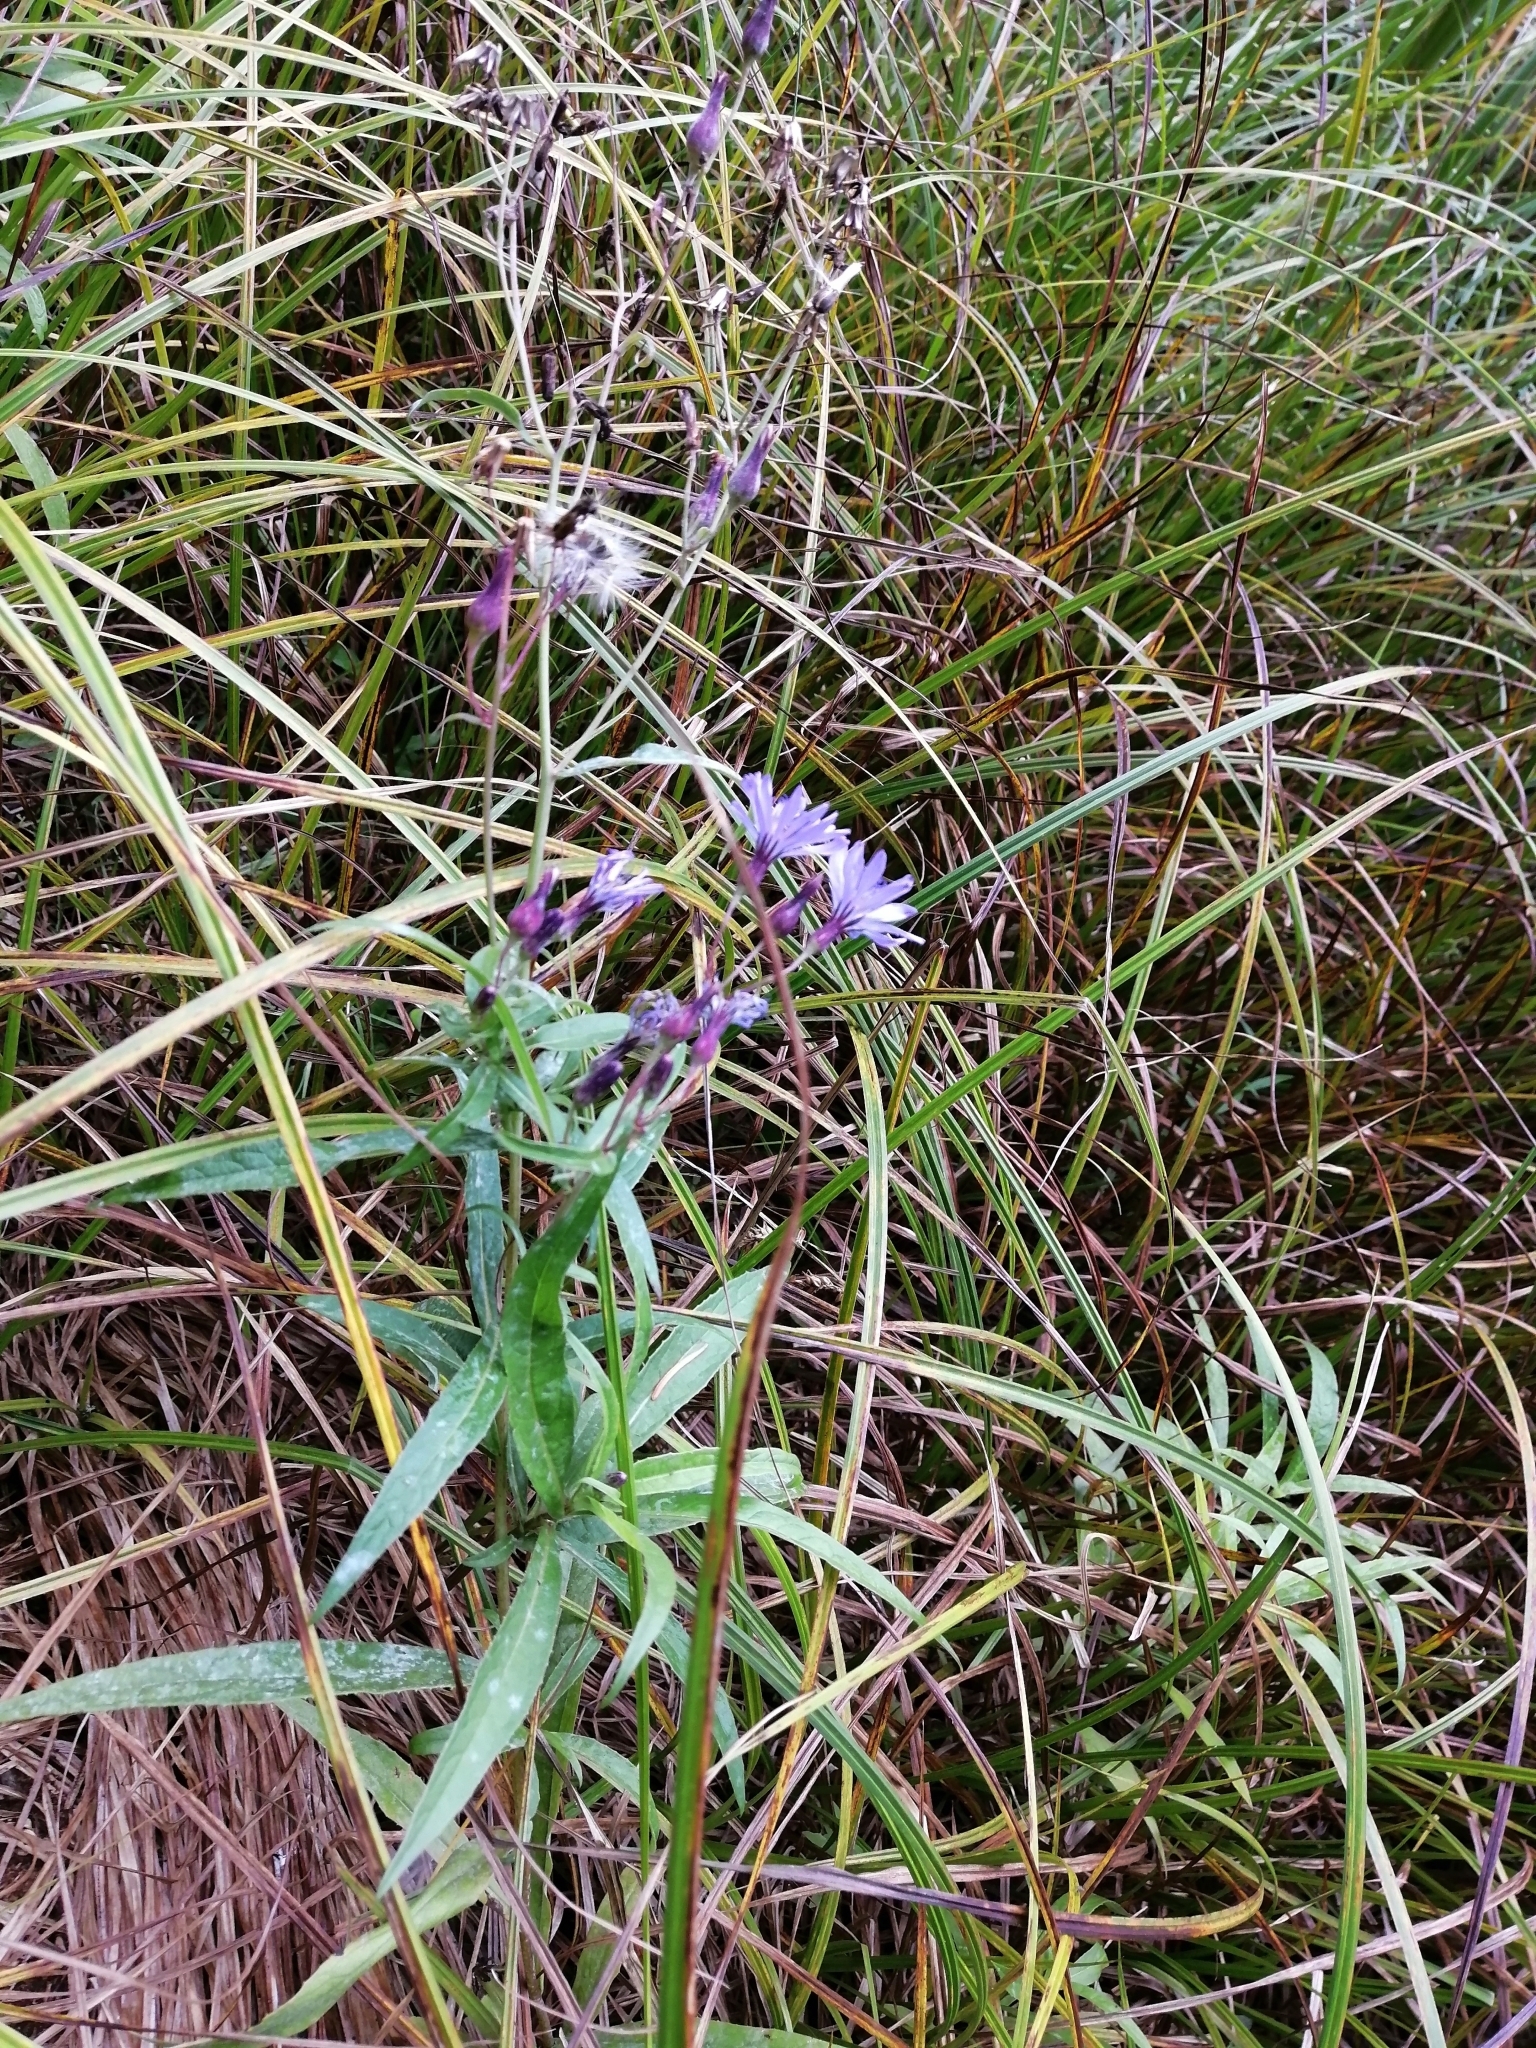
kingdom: Plantae
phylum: Tracheophyta
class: Magnoliopsida
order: Asterales
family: Asteraceae
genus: Lactuca
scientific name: Lactuca sibirica
